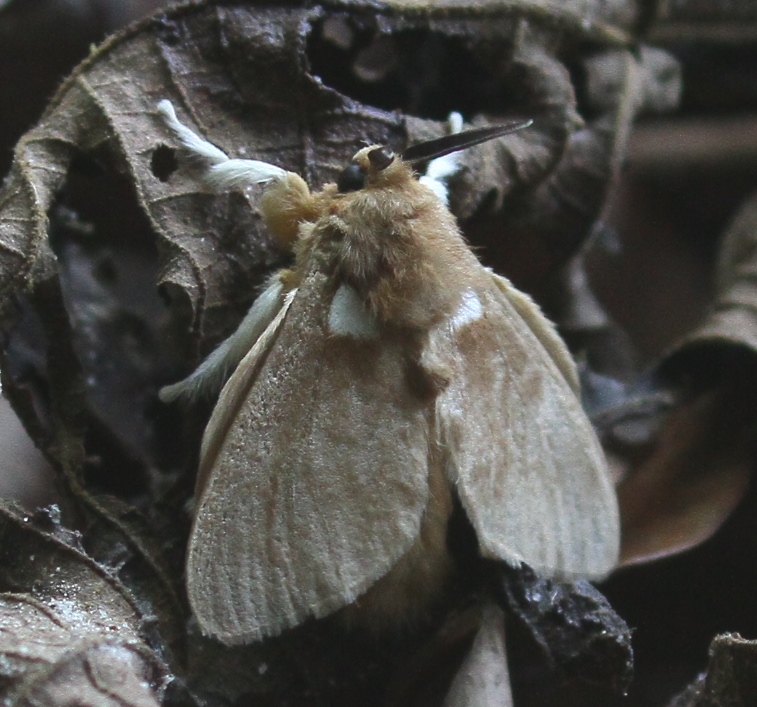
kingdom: Animalia
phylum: Arthropoda
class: Insecta
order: Lepidoptera
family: Megalopygidae
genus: Megalopyge
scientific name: Megalopyge
